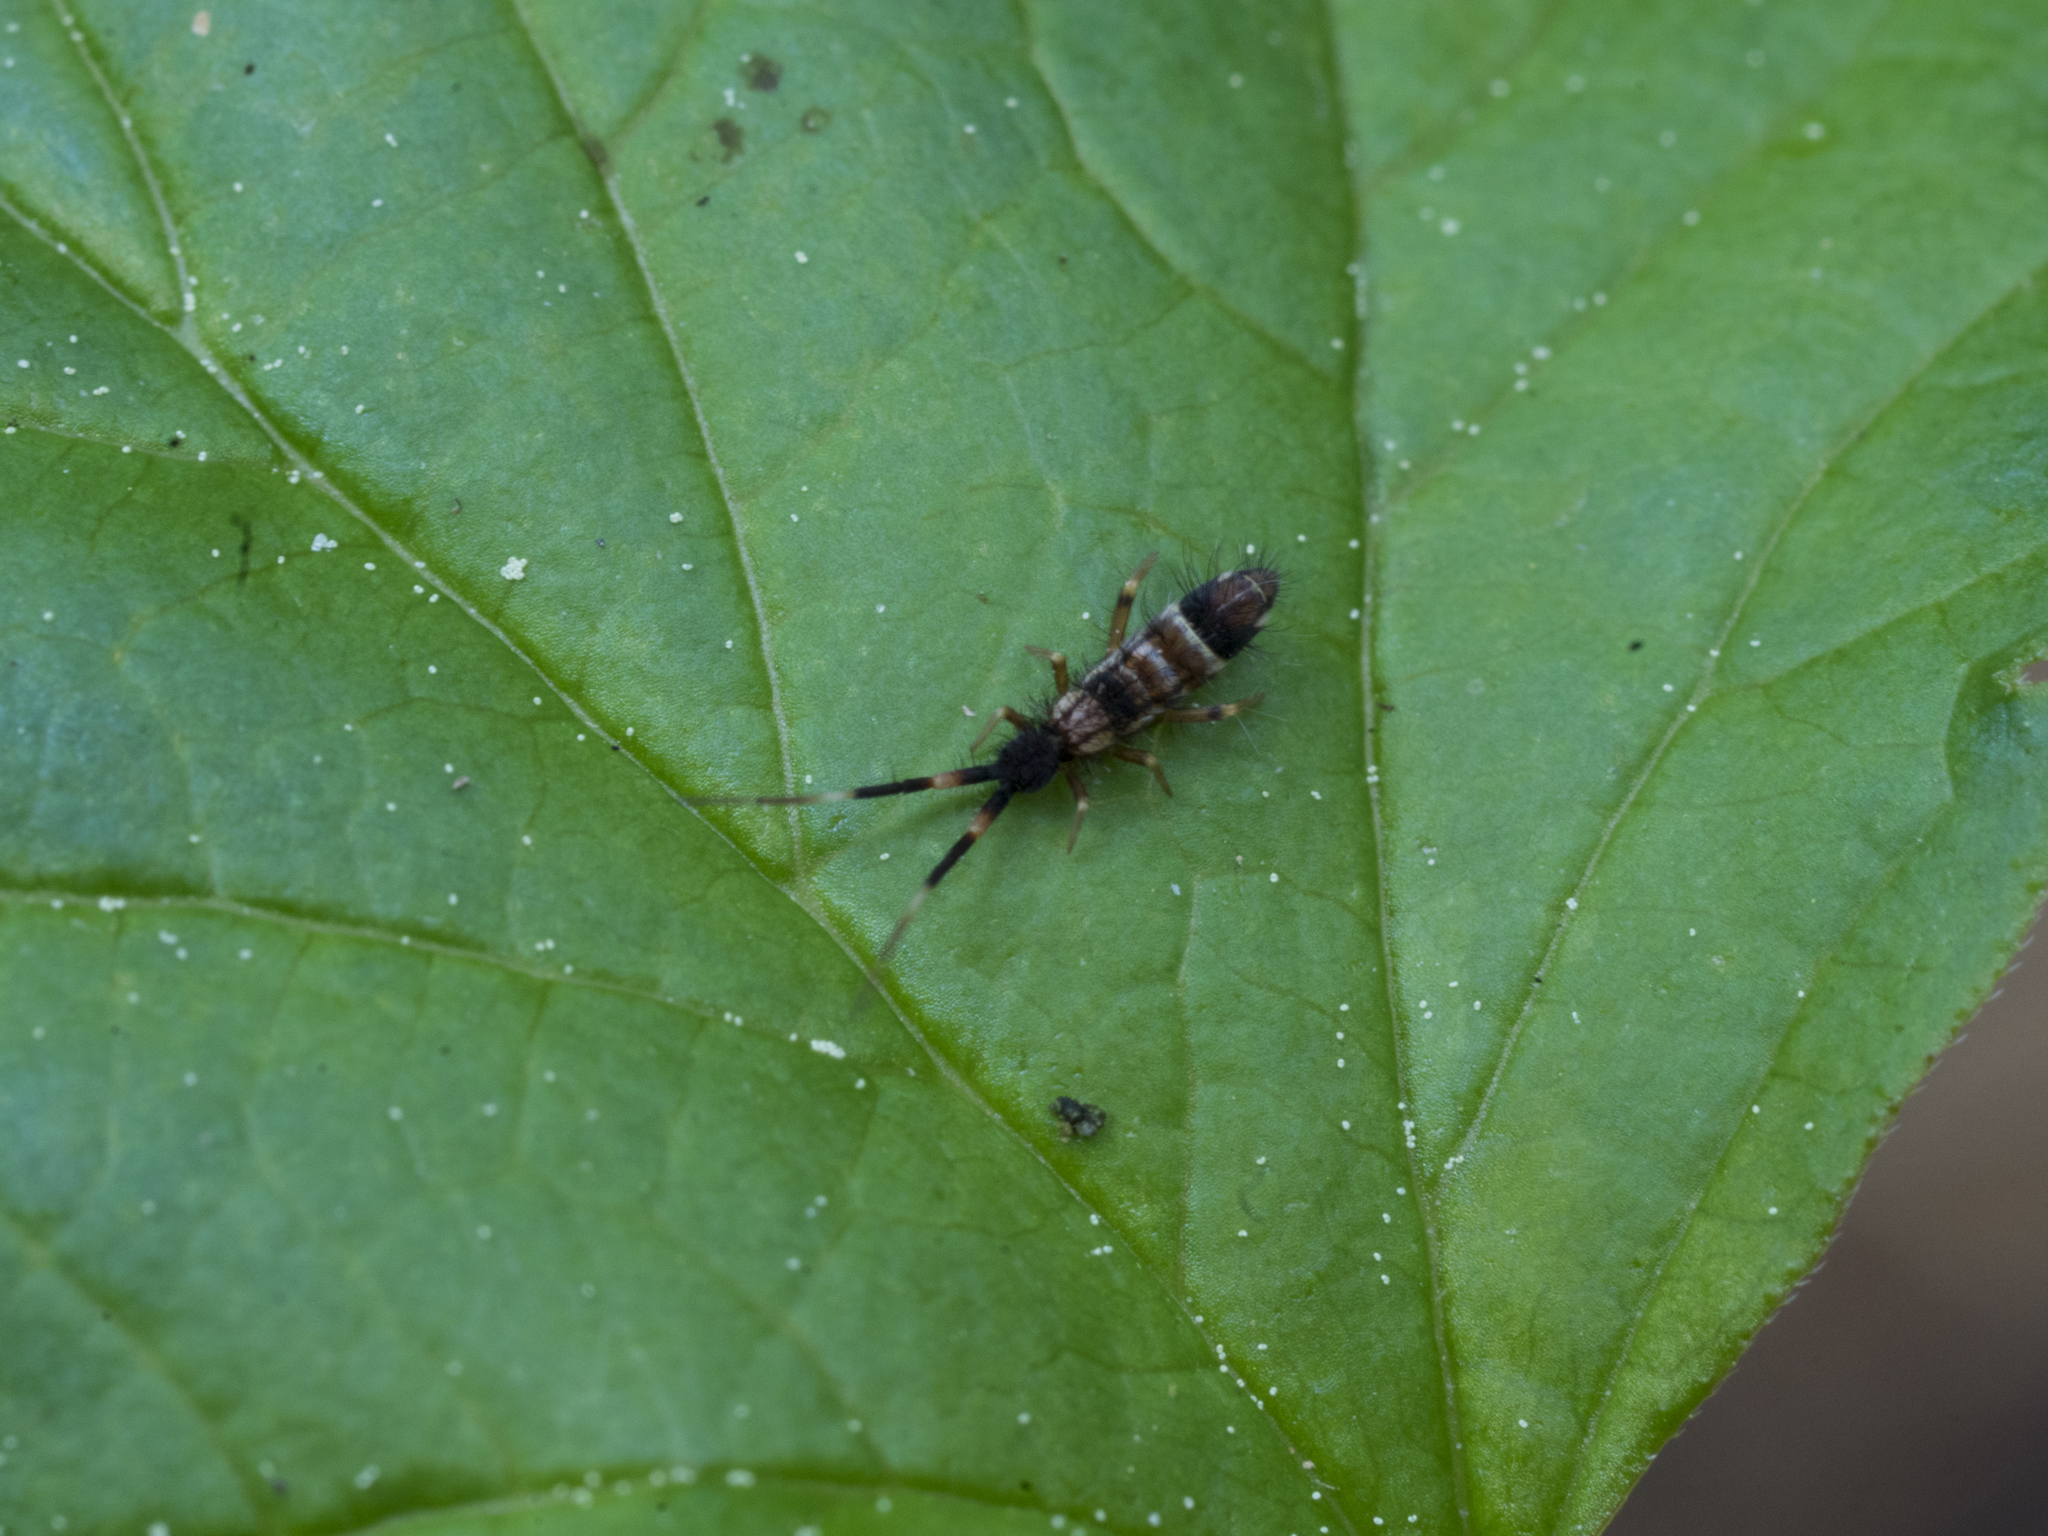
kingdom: Animalia
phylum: Arthropoda
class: Collembola
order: Entomobryomorpha
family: Entomobryidae
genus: Entomobrya
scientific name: Entomobrya nivalis
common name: Cosmopolitan springtail
